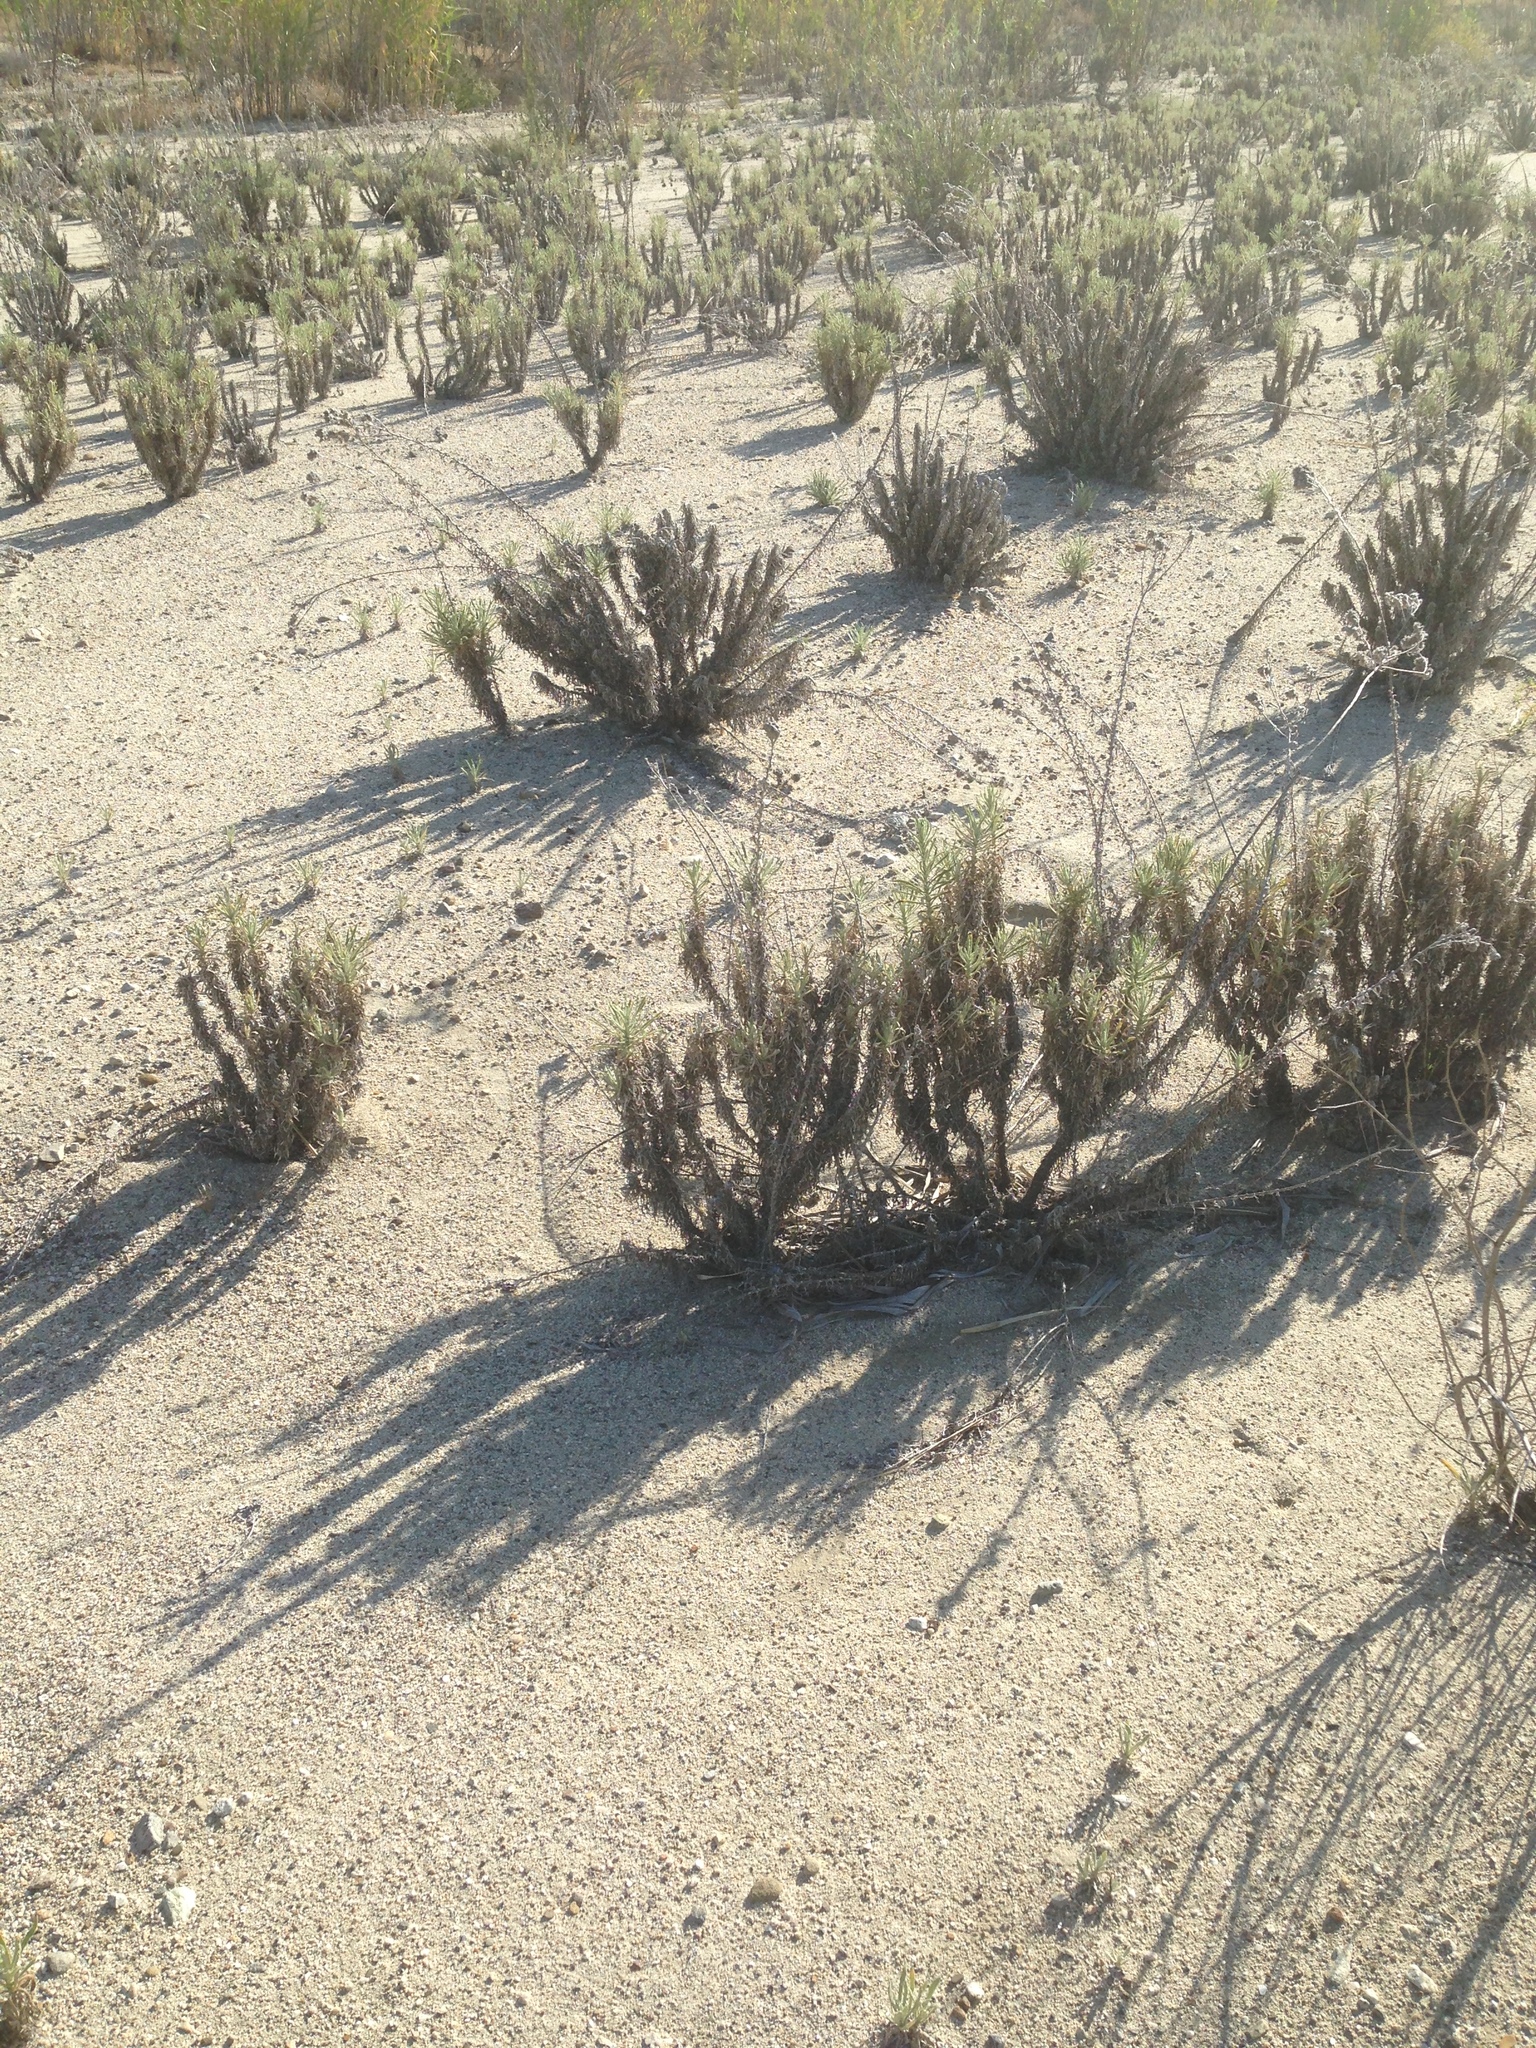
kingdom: Plantae
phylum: Tracheophyta
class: Magnoliopsida
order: Asterales
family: Asteraceae
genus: Pseudognaphalium
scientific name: Pseudognaphalium leucocephalum
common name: White cudweed
